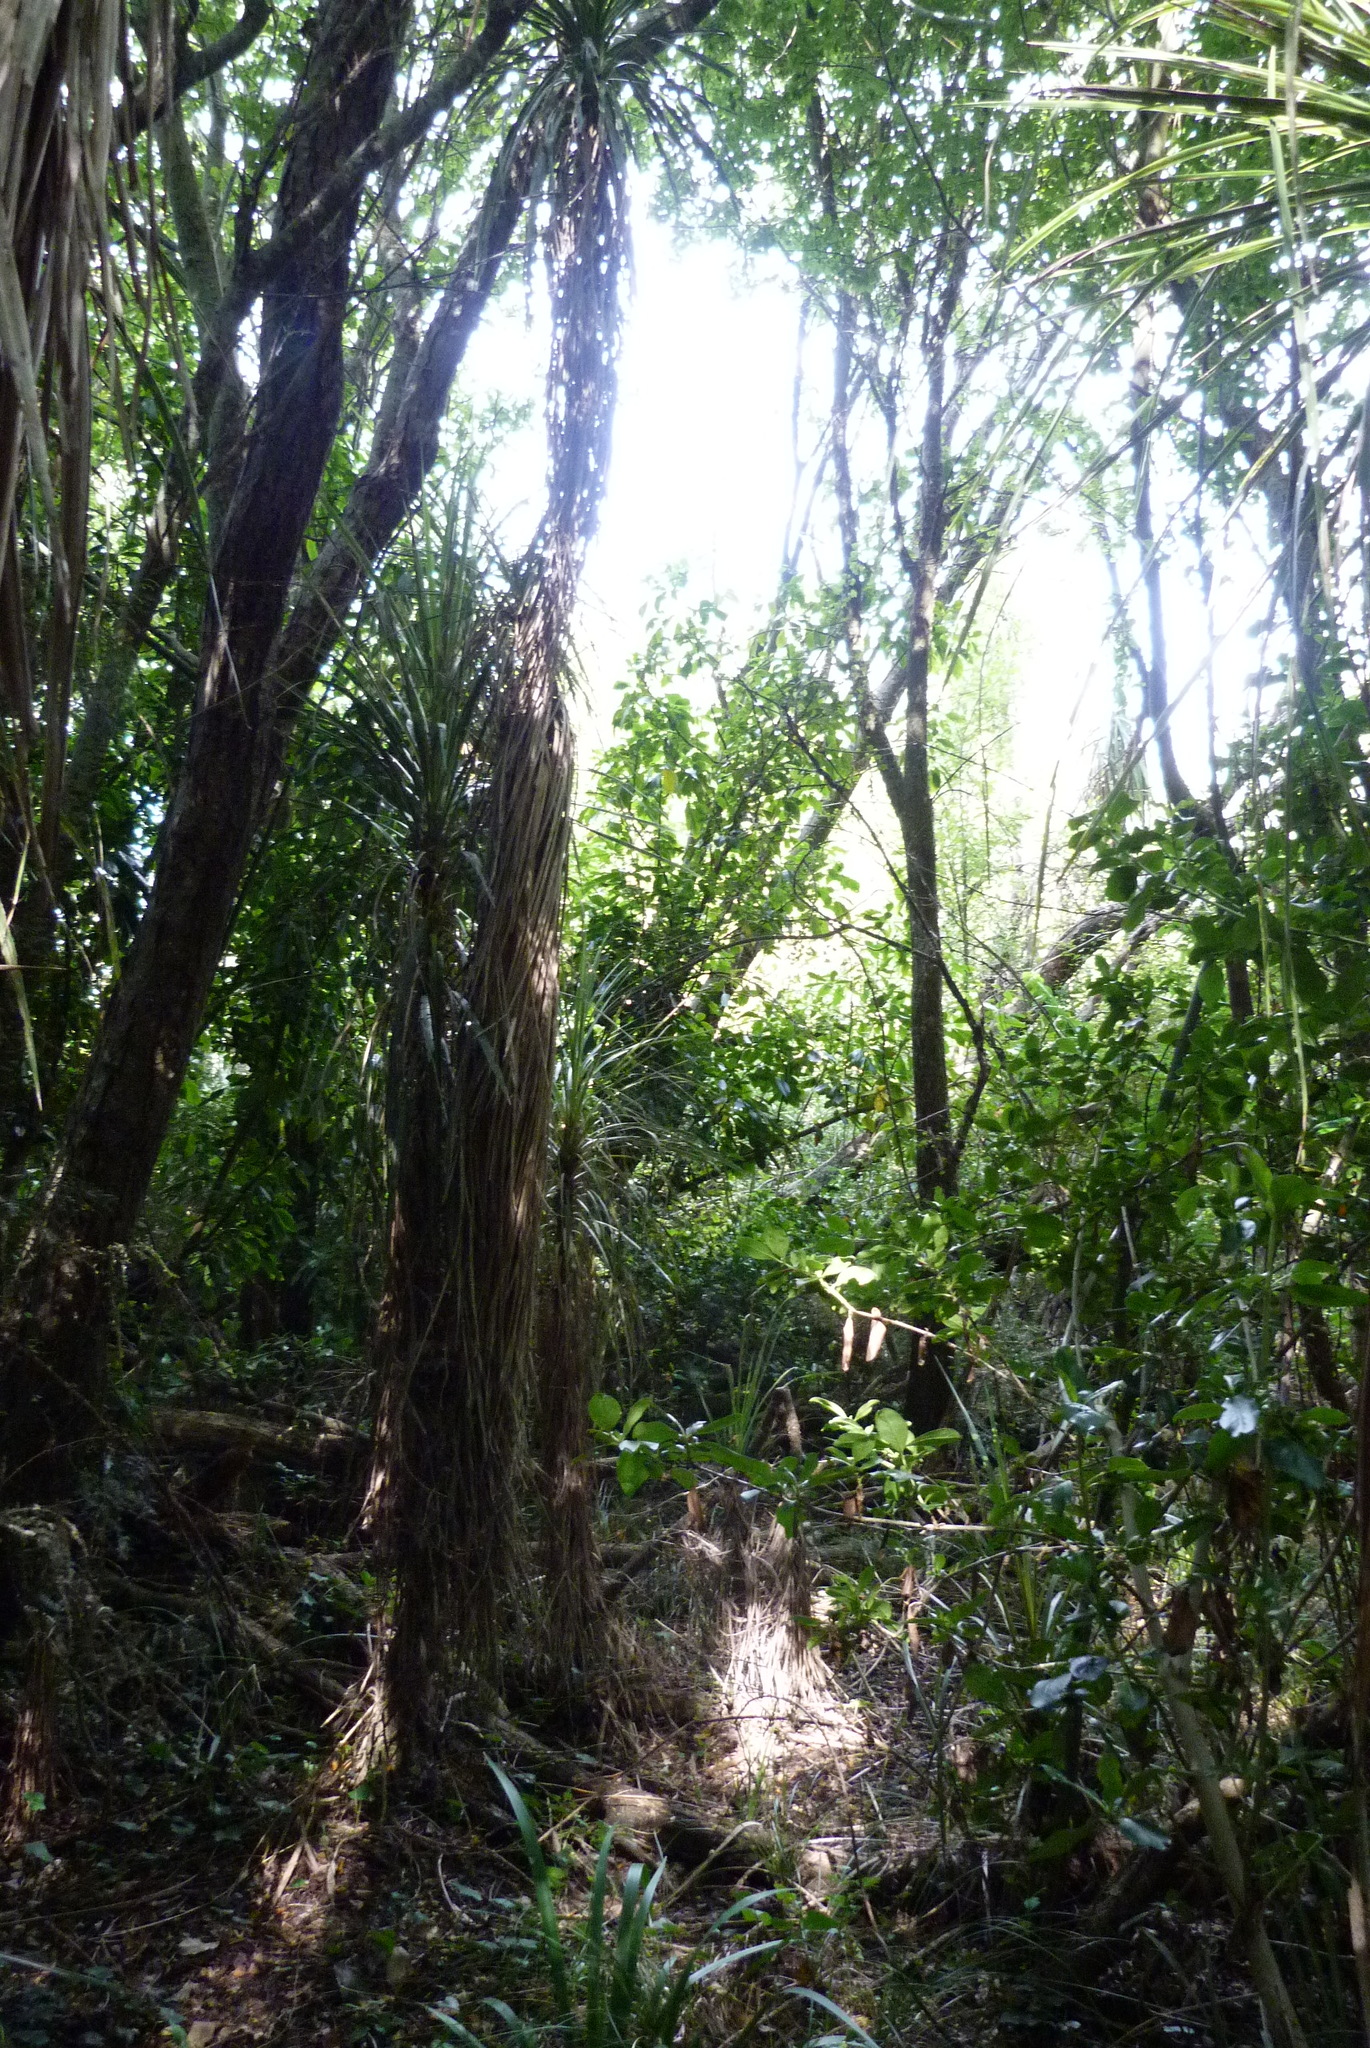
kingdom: Plantae
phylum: Tracheophyta
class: Magnoliopsida
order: Gentianales
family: Rubiaceae
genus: Coprosma
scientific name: Coprosma robusta
